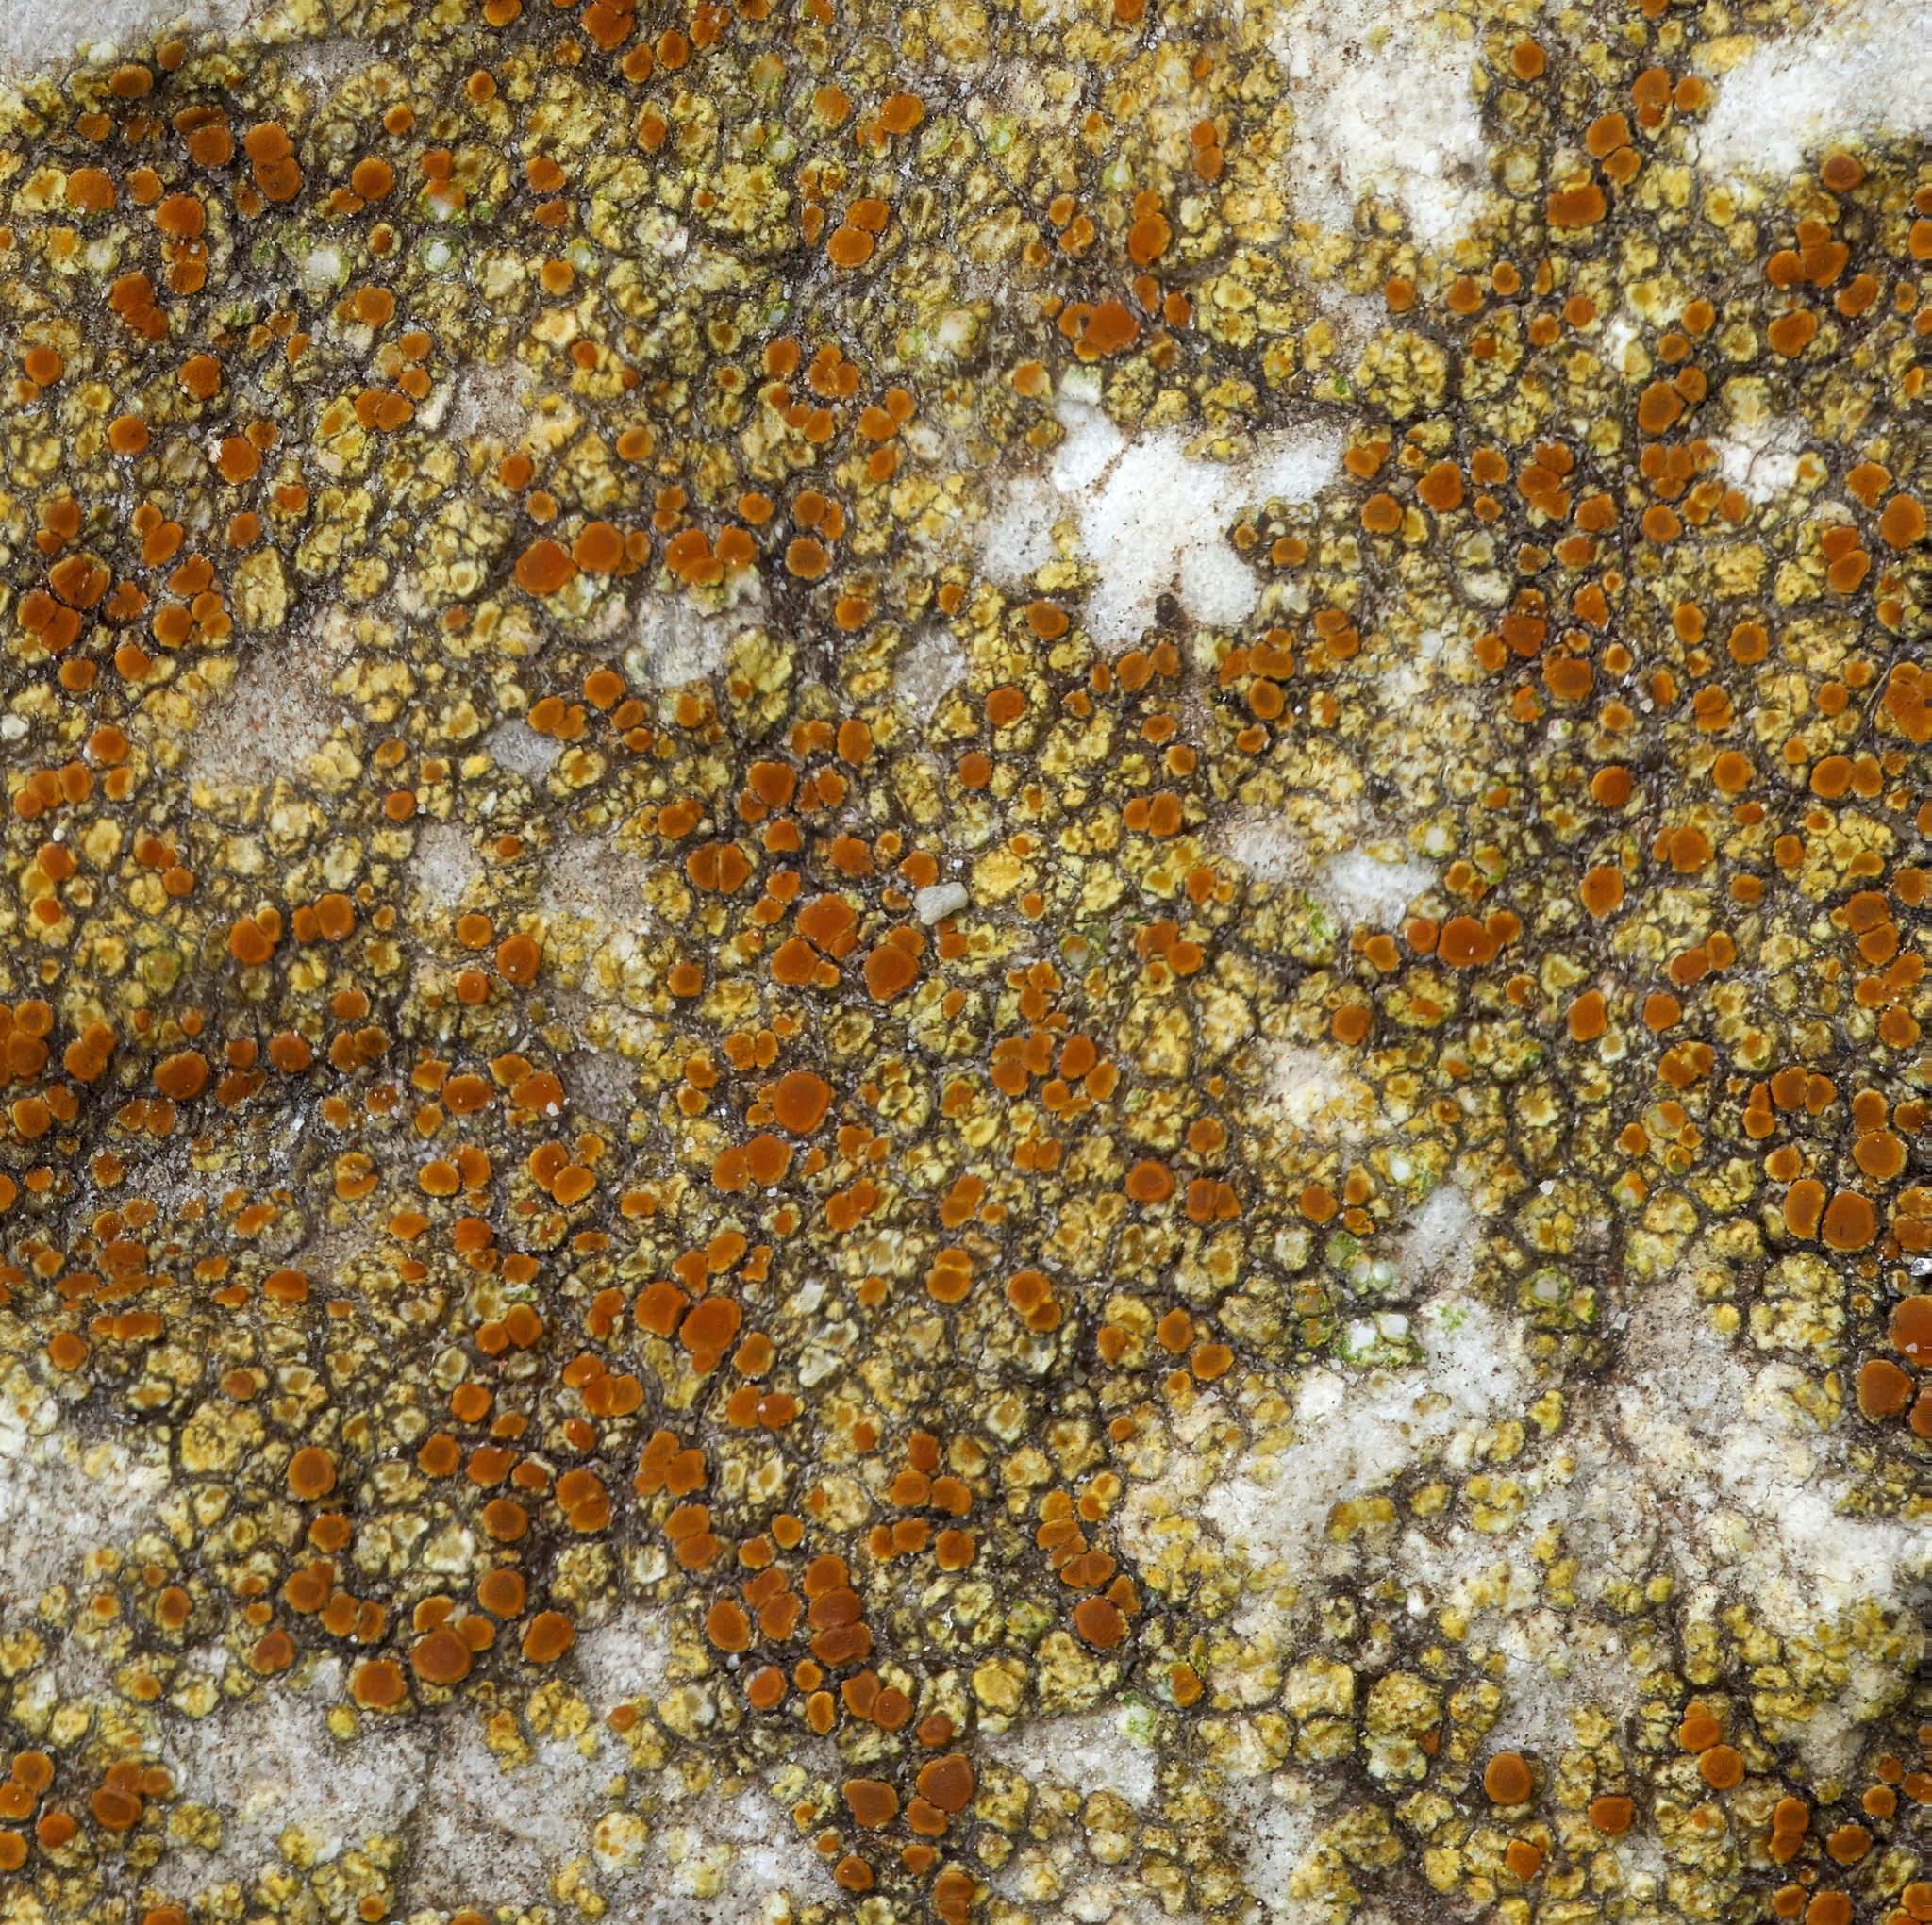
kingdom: Fungi
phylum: Ascomycota
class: Lecanoromycetes
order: Teloschistales
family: Teloschistaceae
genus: Gyalolechia
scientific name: Gyalolechia flavovirescens
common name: Sulphur firedot
